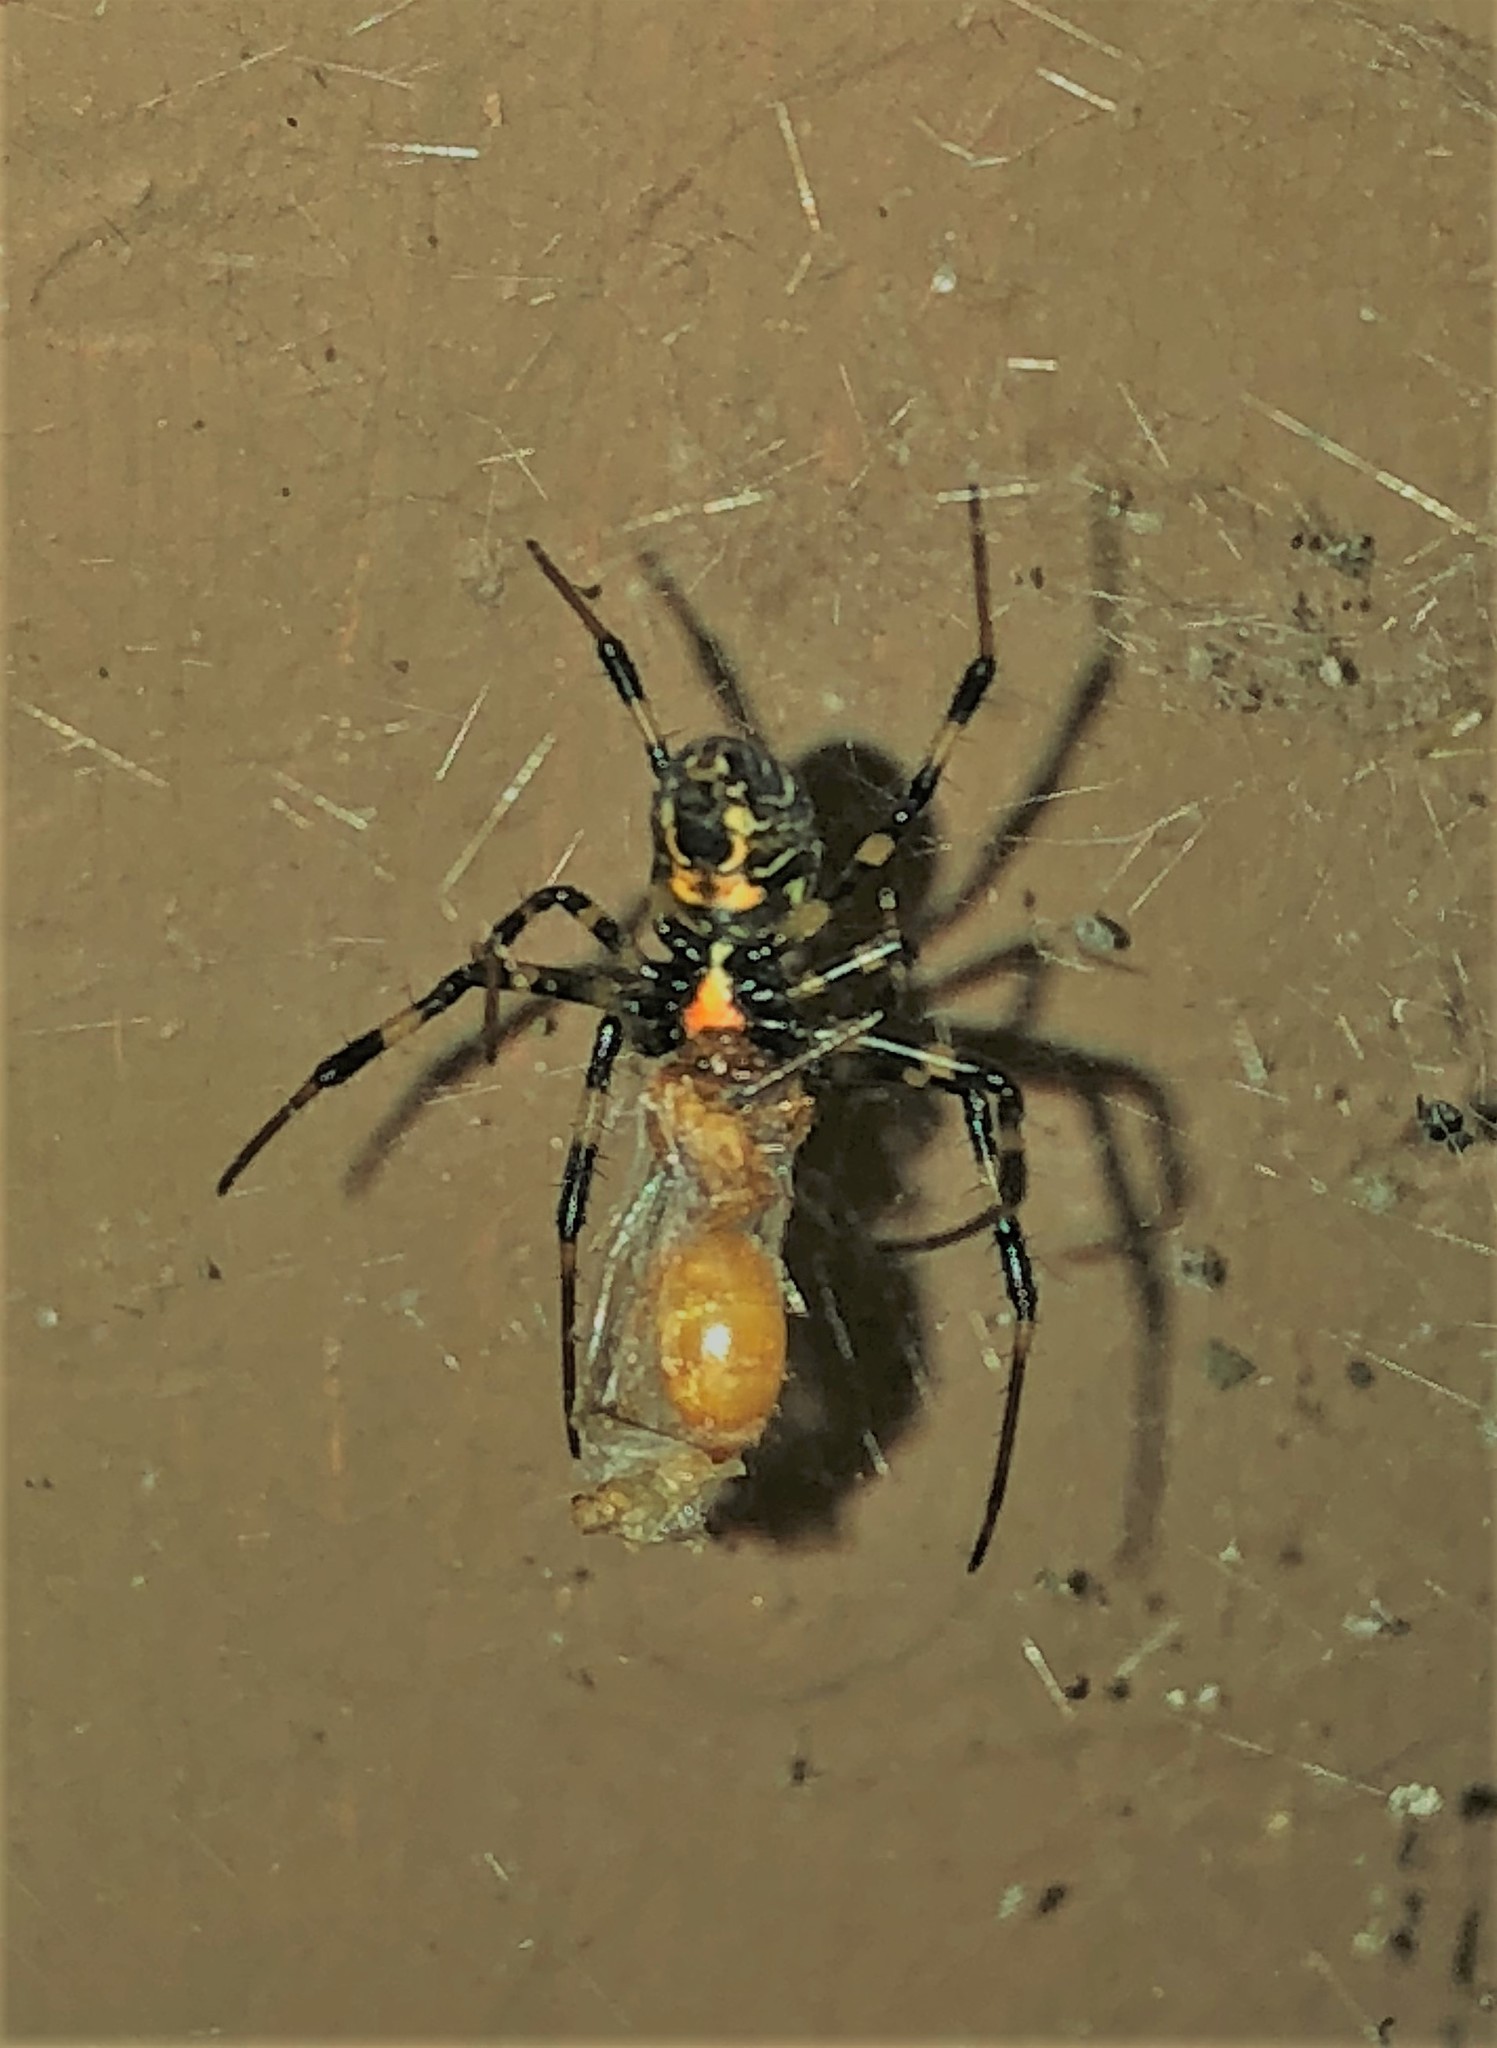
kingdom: Animalia
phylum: Arthropoda
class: Arachnida
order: Araneae
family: Araneidae
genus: Nephilengys
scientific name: Nephilengys malabarensis
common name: Asian hermit spider
